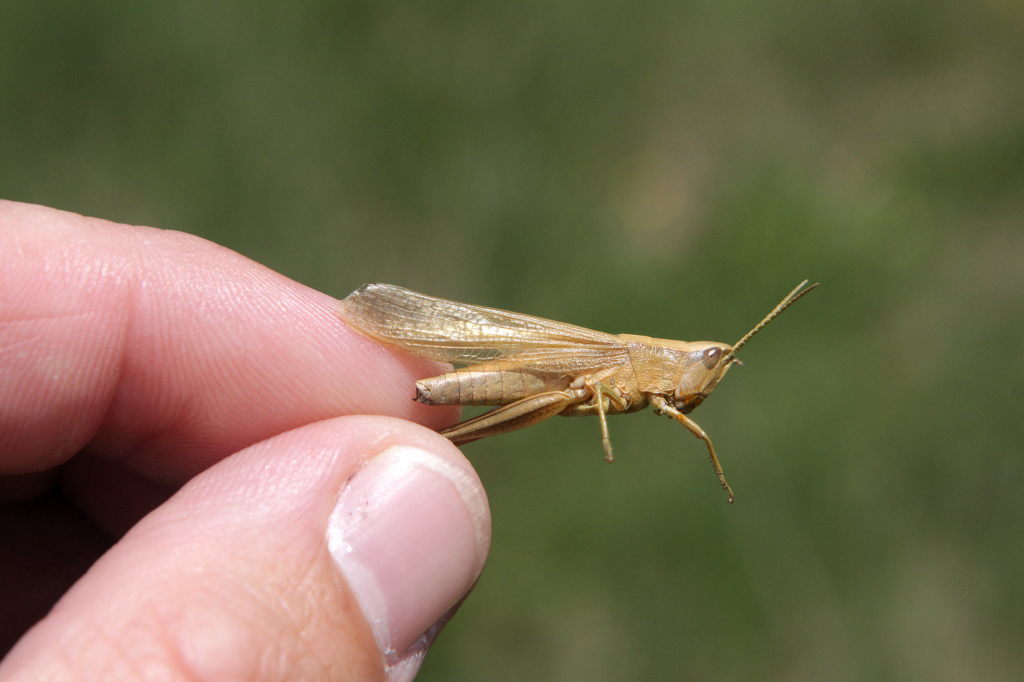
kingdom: Animalia
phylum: Arthropoda
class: Insecta
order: Orthoptera
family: Acrididae
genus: Chrysochraon
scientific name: Chrysochraon dispar
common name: Large gold grasshopper
